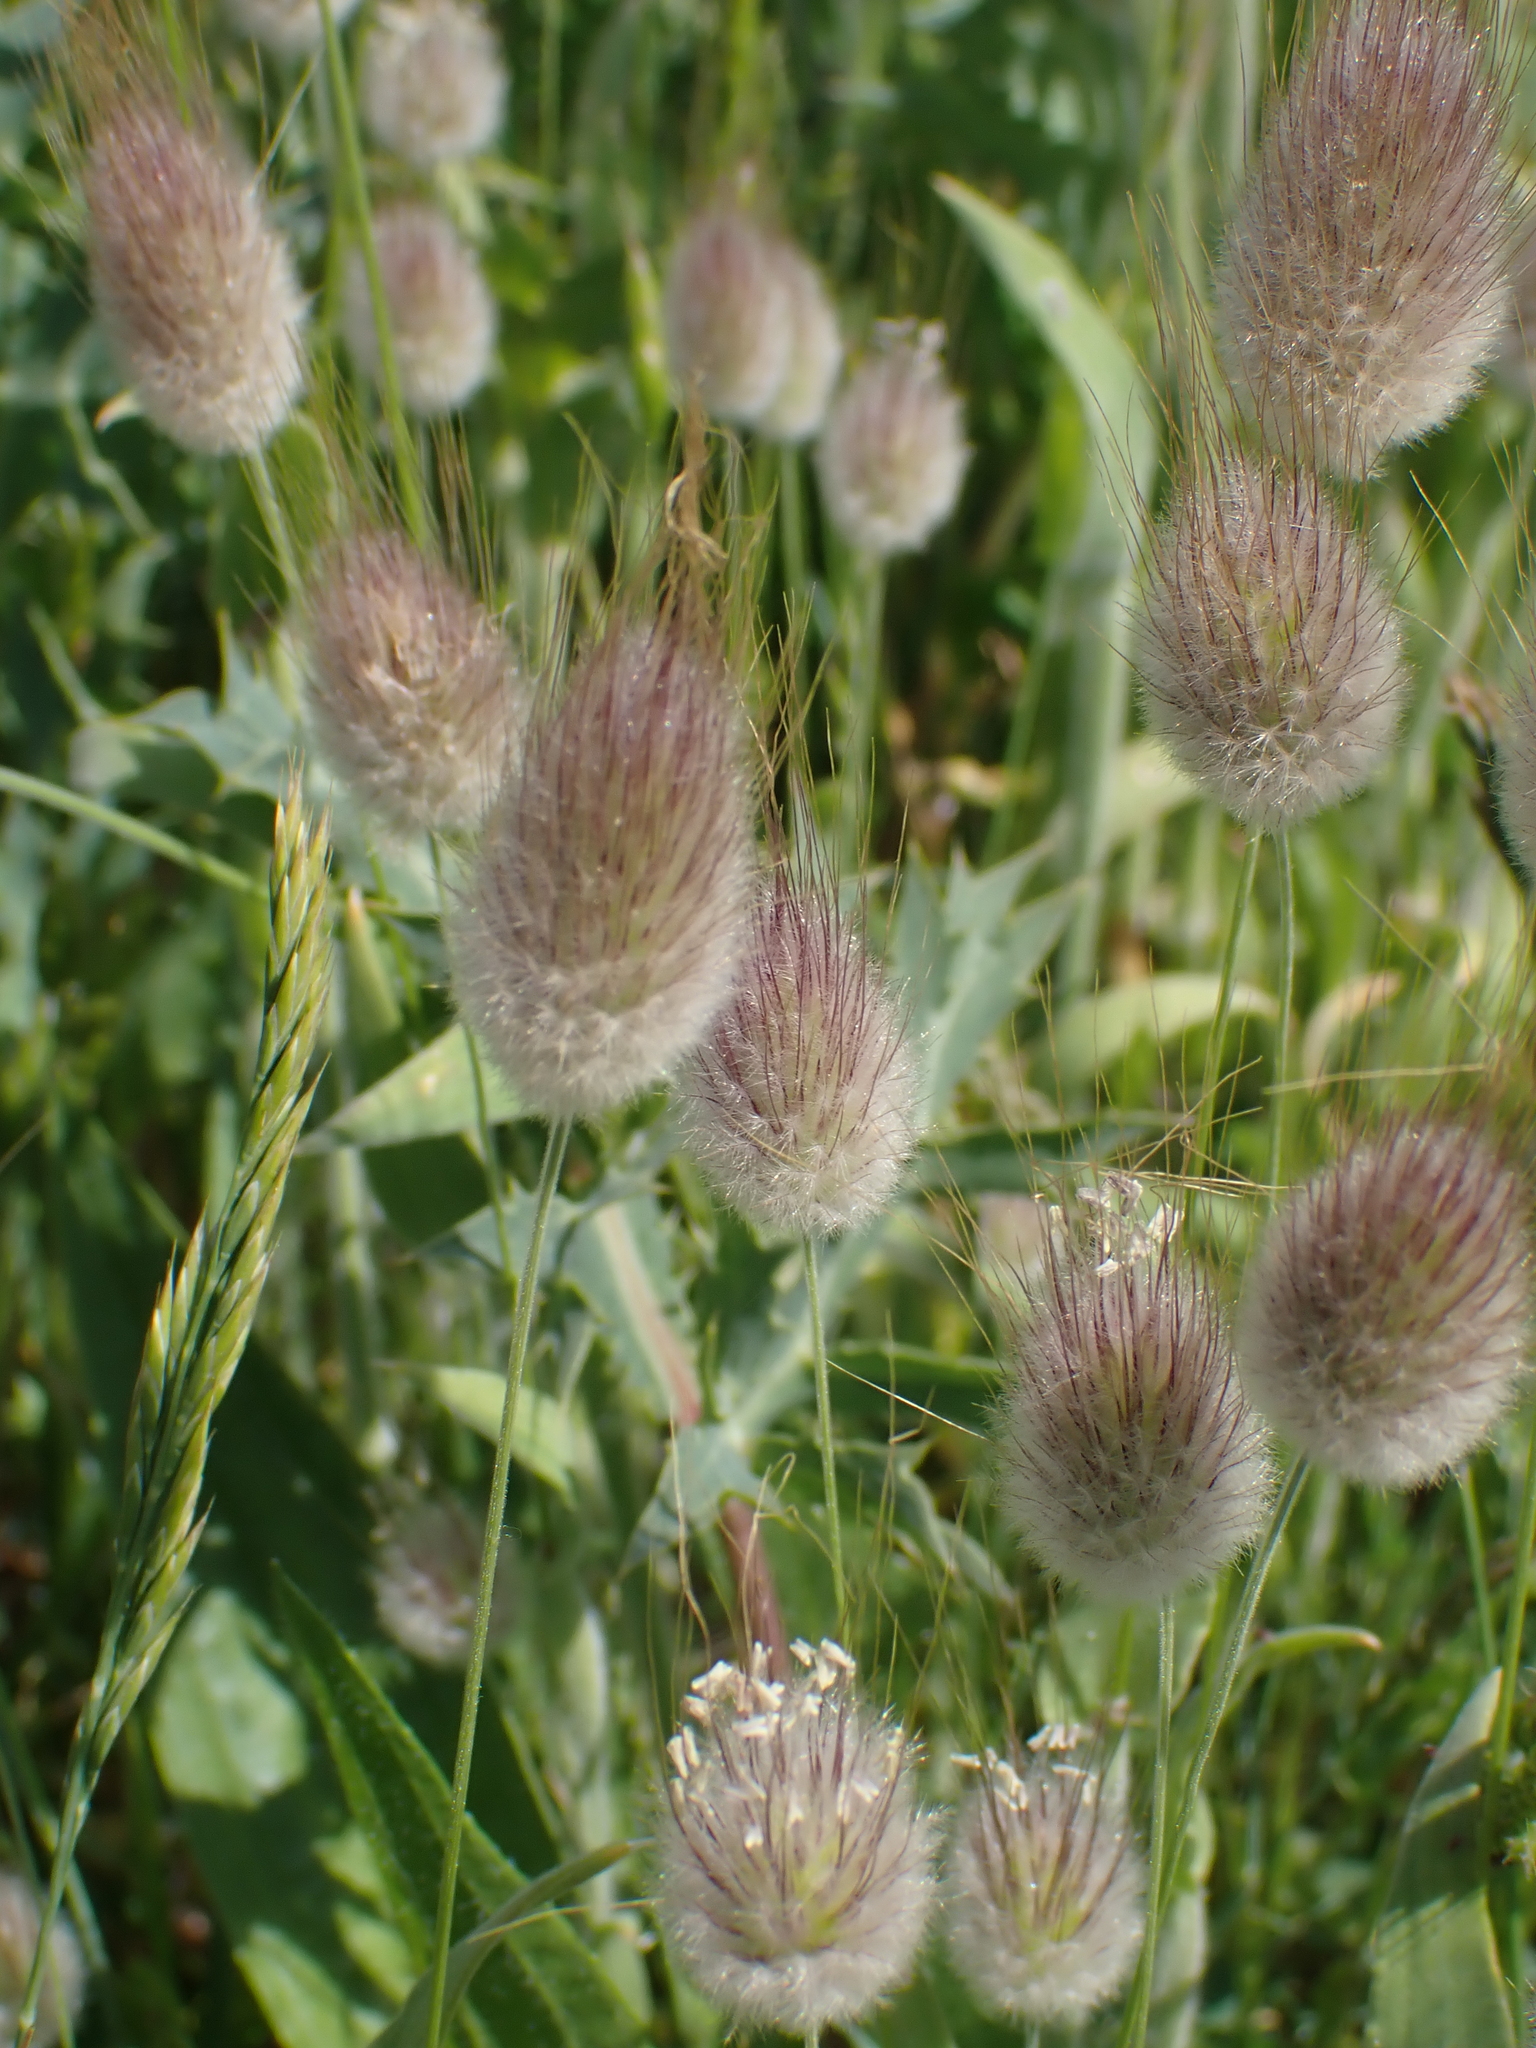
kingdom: Plantae
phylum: Tracheophyta
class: Liliopsida
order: Poales
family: Poaceae
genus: Lagurus
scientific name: Lagurus ovatus
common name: Hare's-tail
